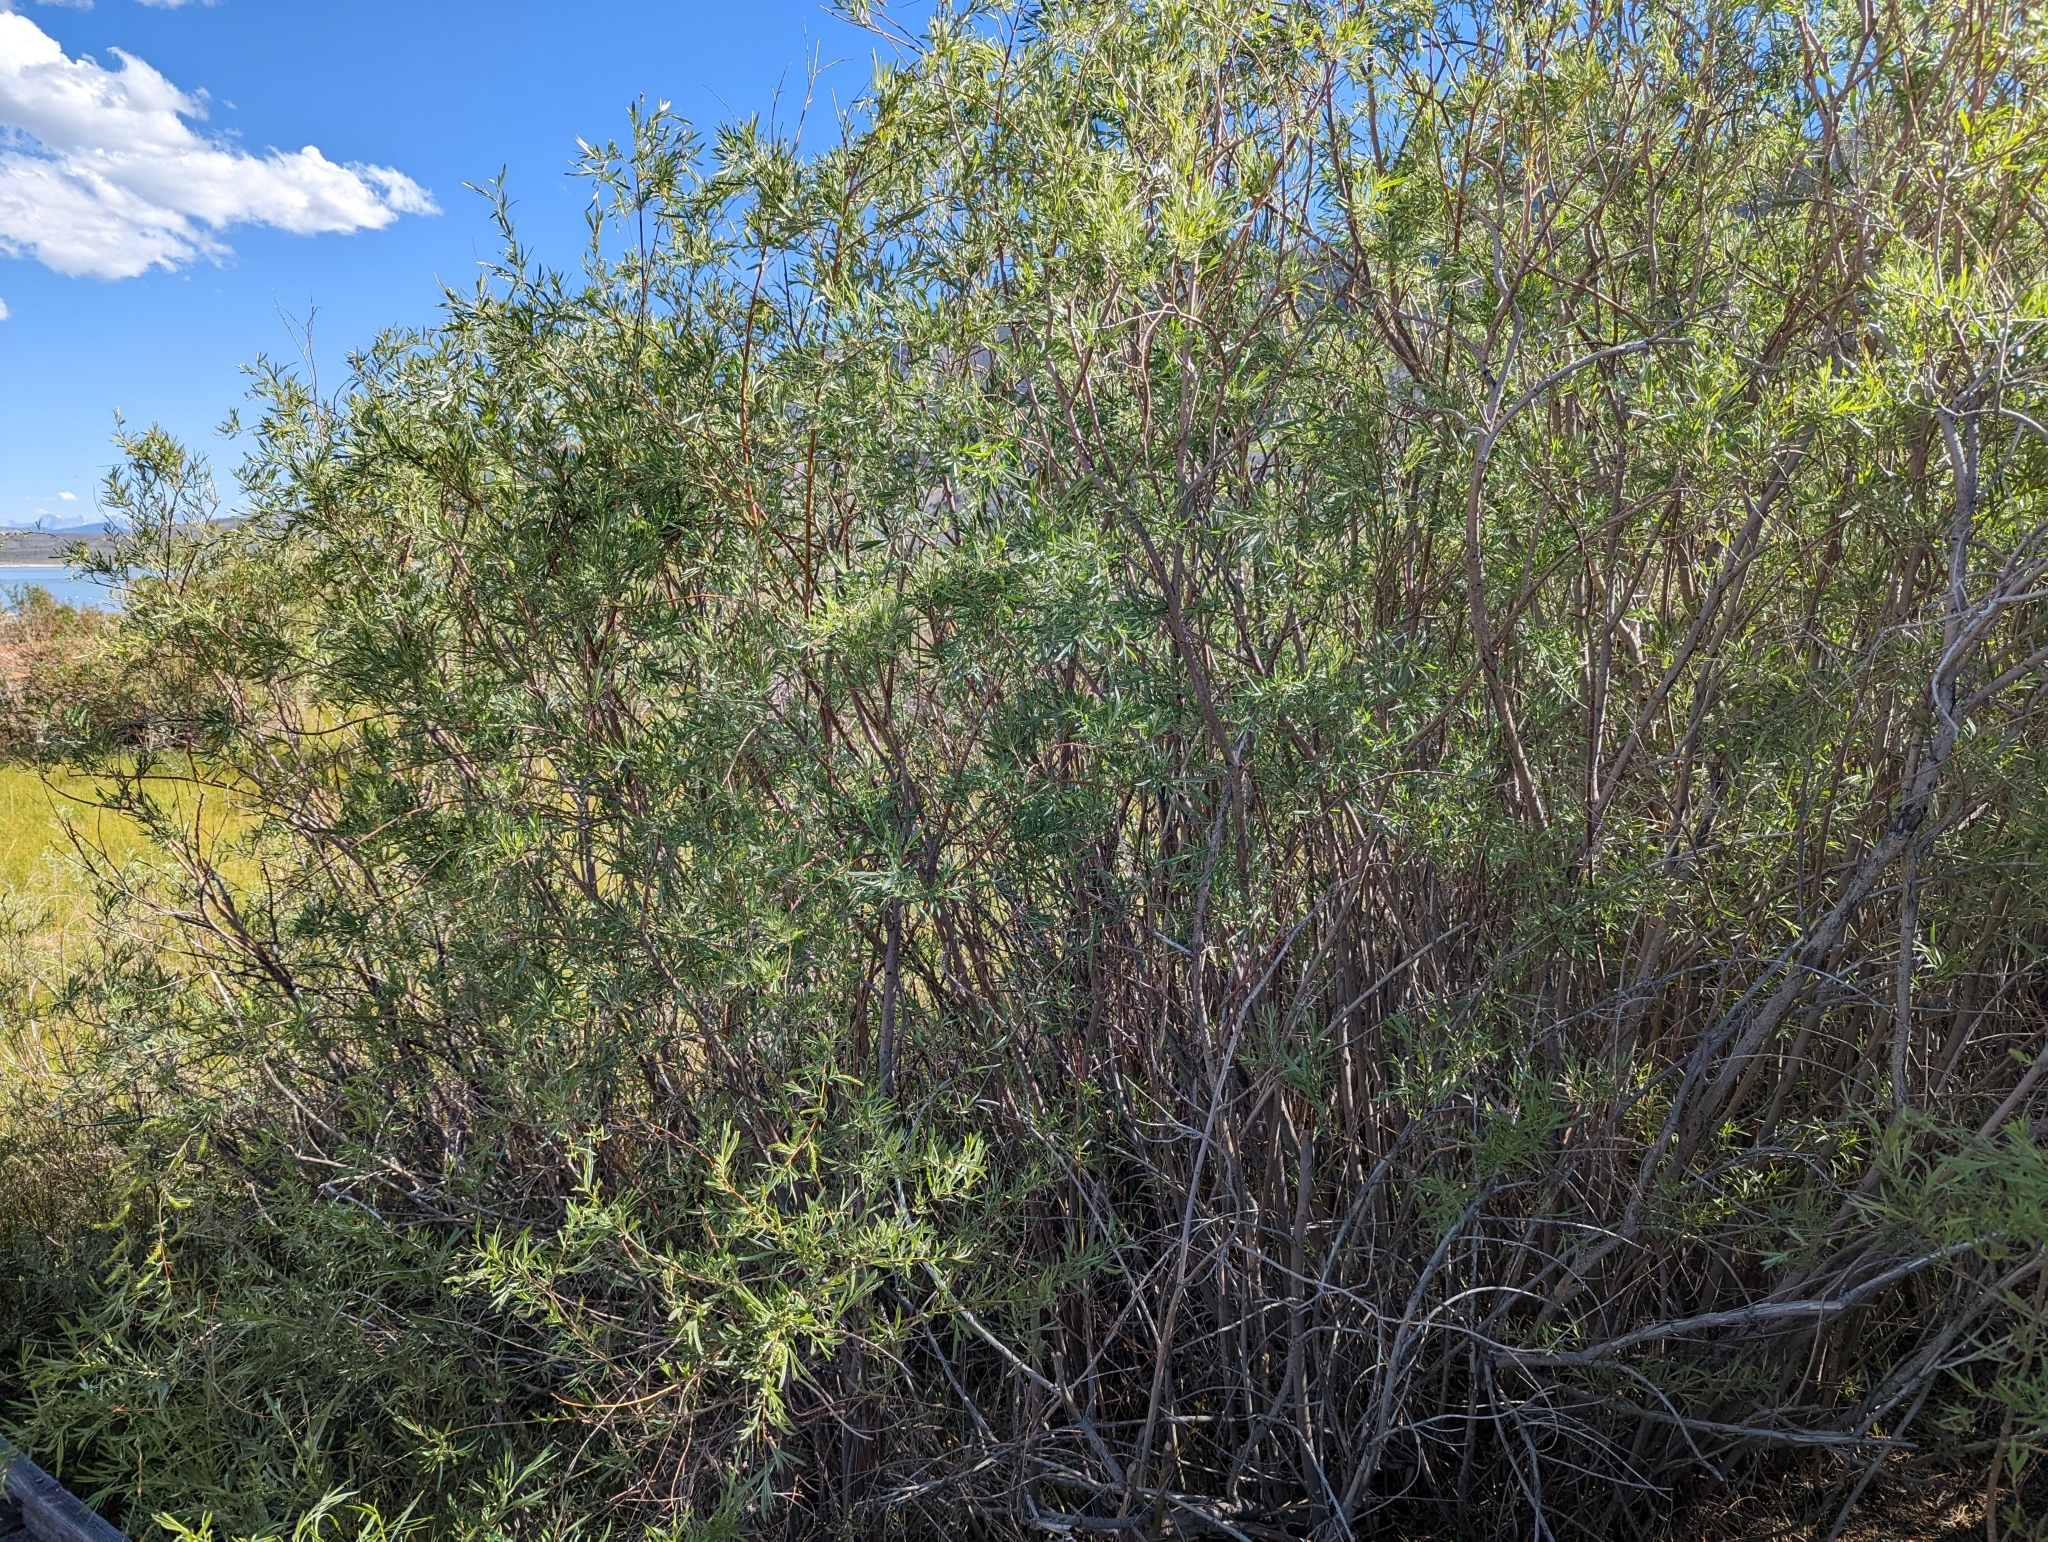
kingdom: Plantae
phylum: Tracheophyta
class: Magnoliopsida
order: Malpighiales
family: Salicaceae
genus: Salix
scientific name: Salix exigua
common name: Coyote willow
